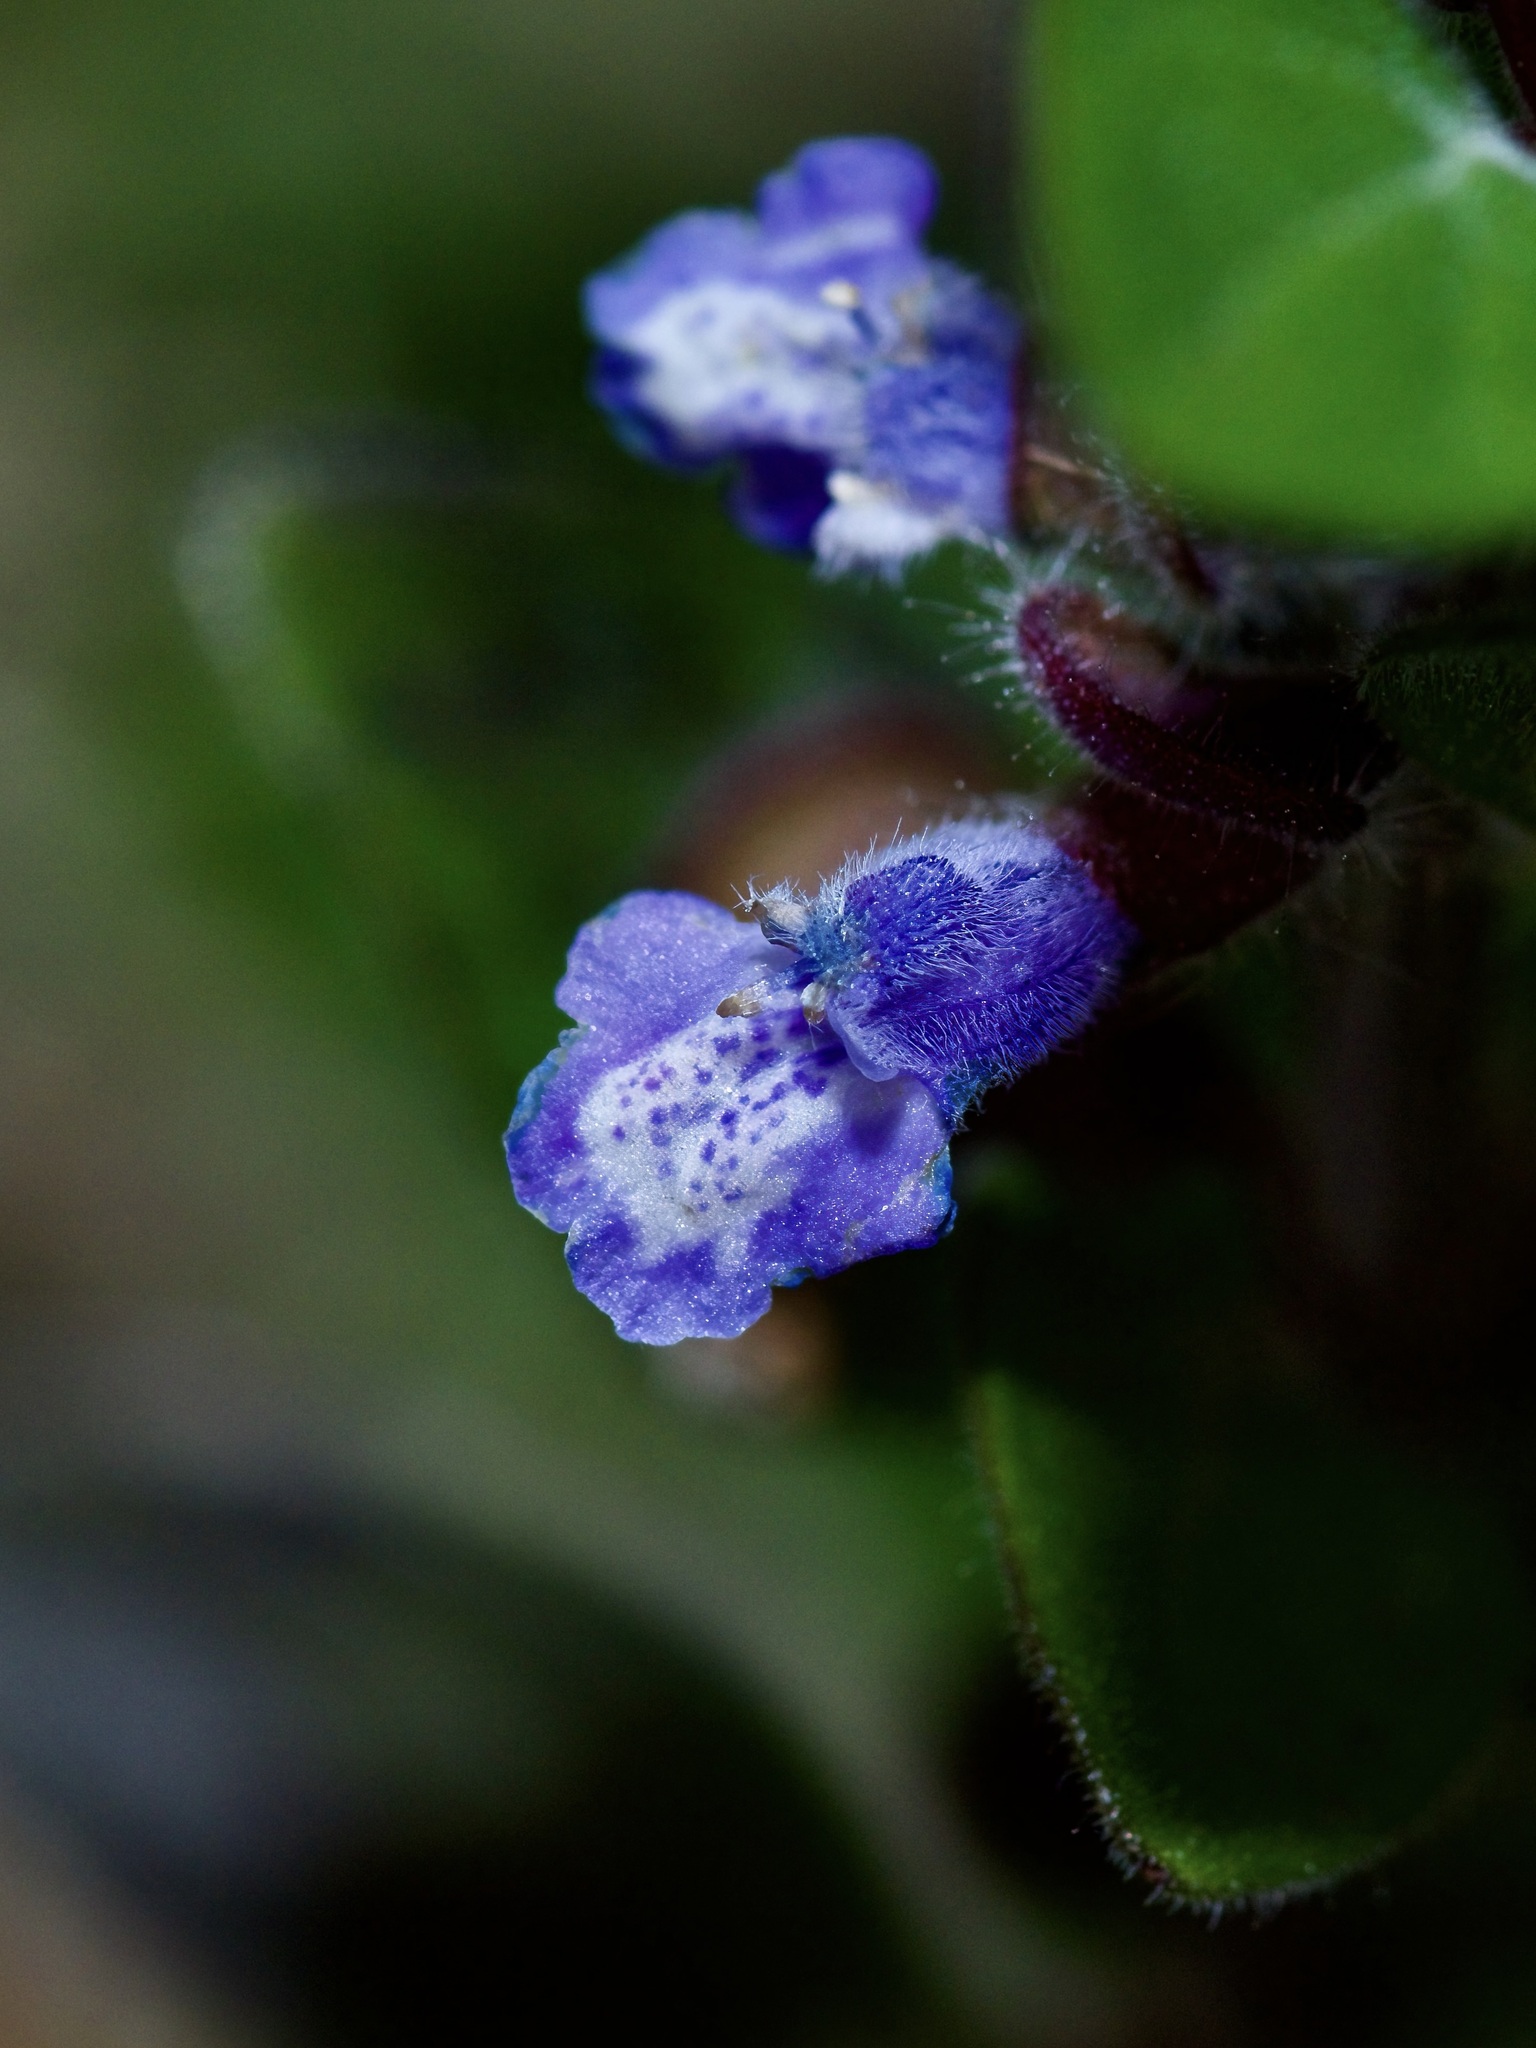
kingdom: Plantae
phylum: Tracheophyta
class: Magnoliopsida
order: Lamiales
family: Lamiaceae
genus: Scutellaria
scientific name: Scutellaria drummondii
